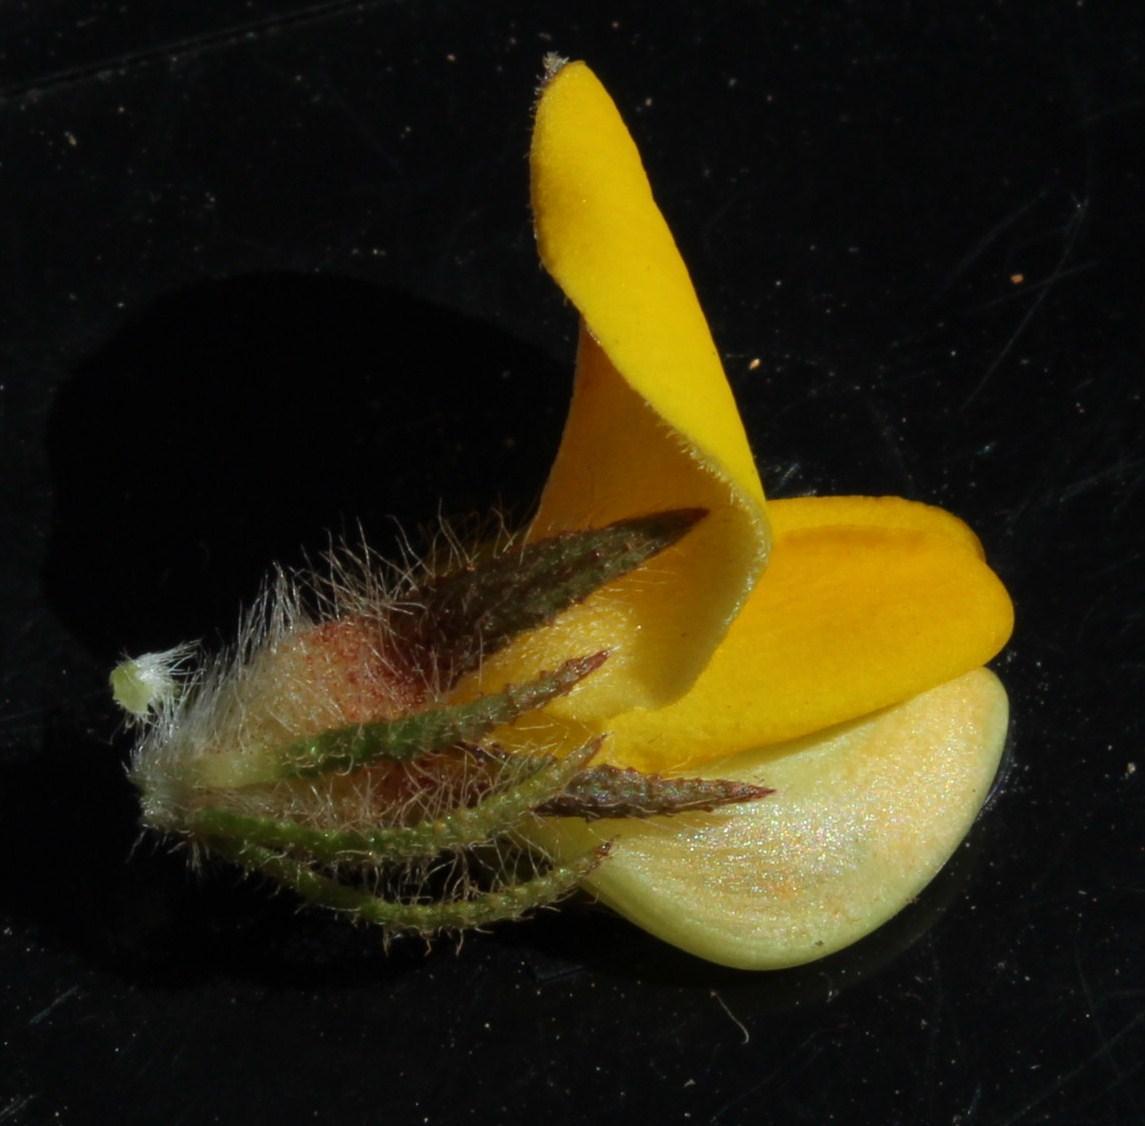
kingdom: Plantae
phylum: Tracheophyta
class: Magnoliopsida
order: Fabales
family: Fabaceae
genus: Aspalathus
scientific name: Aspalathus ciliaris
